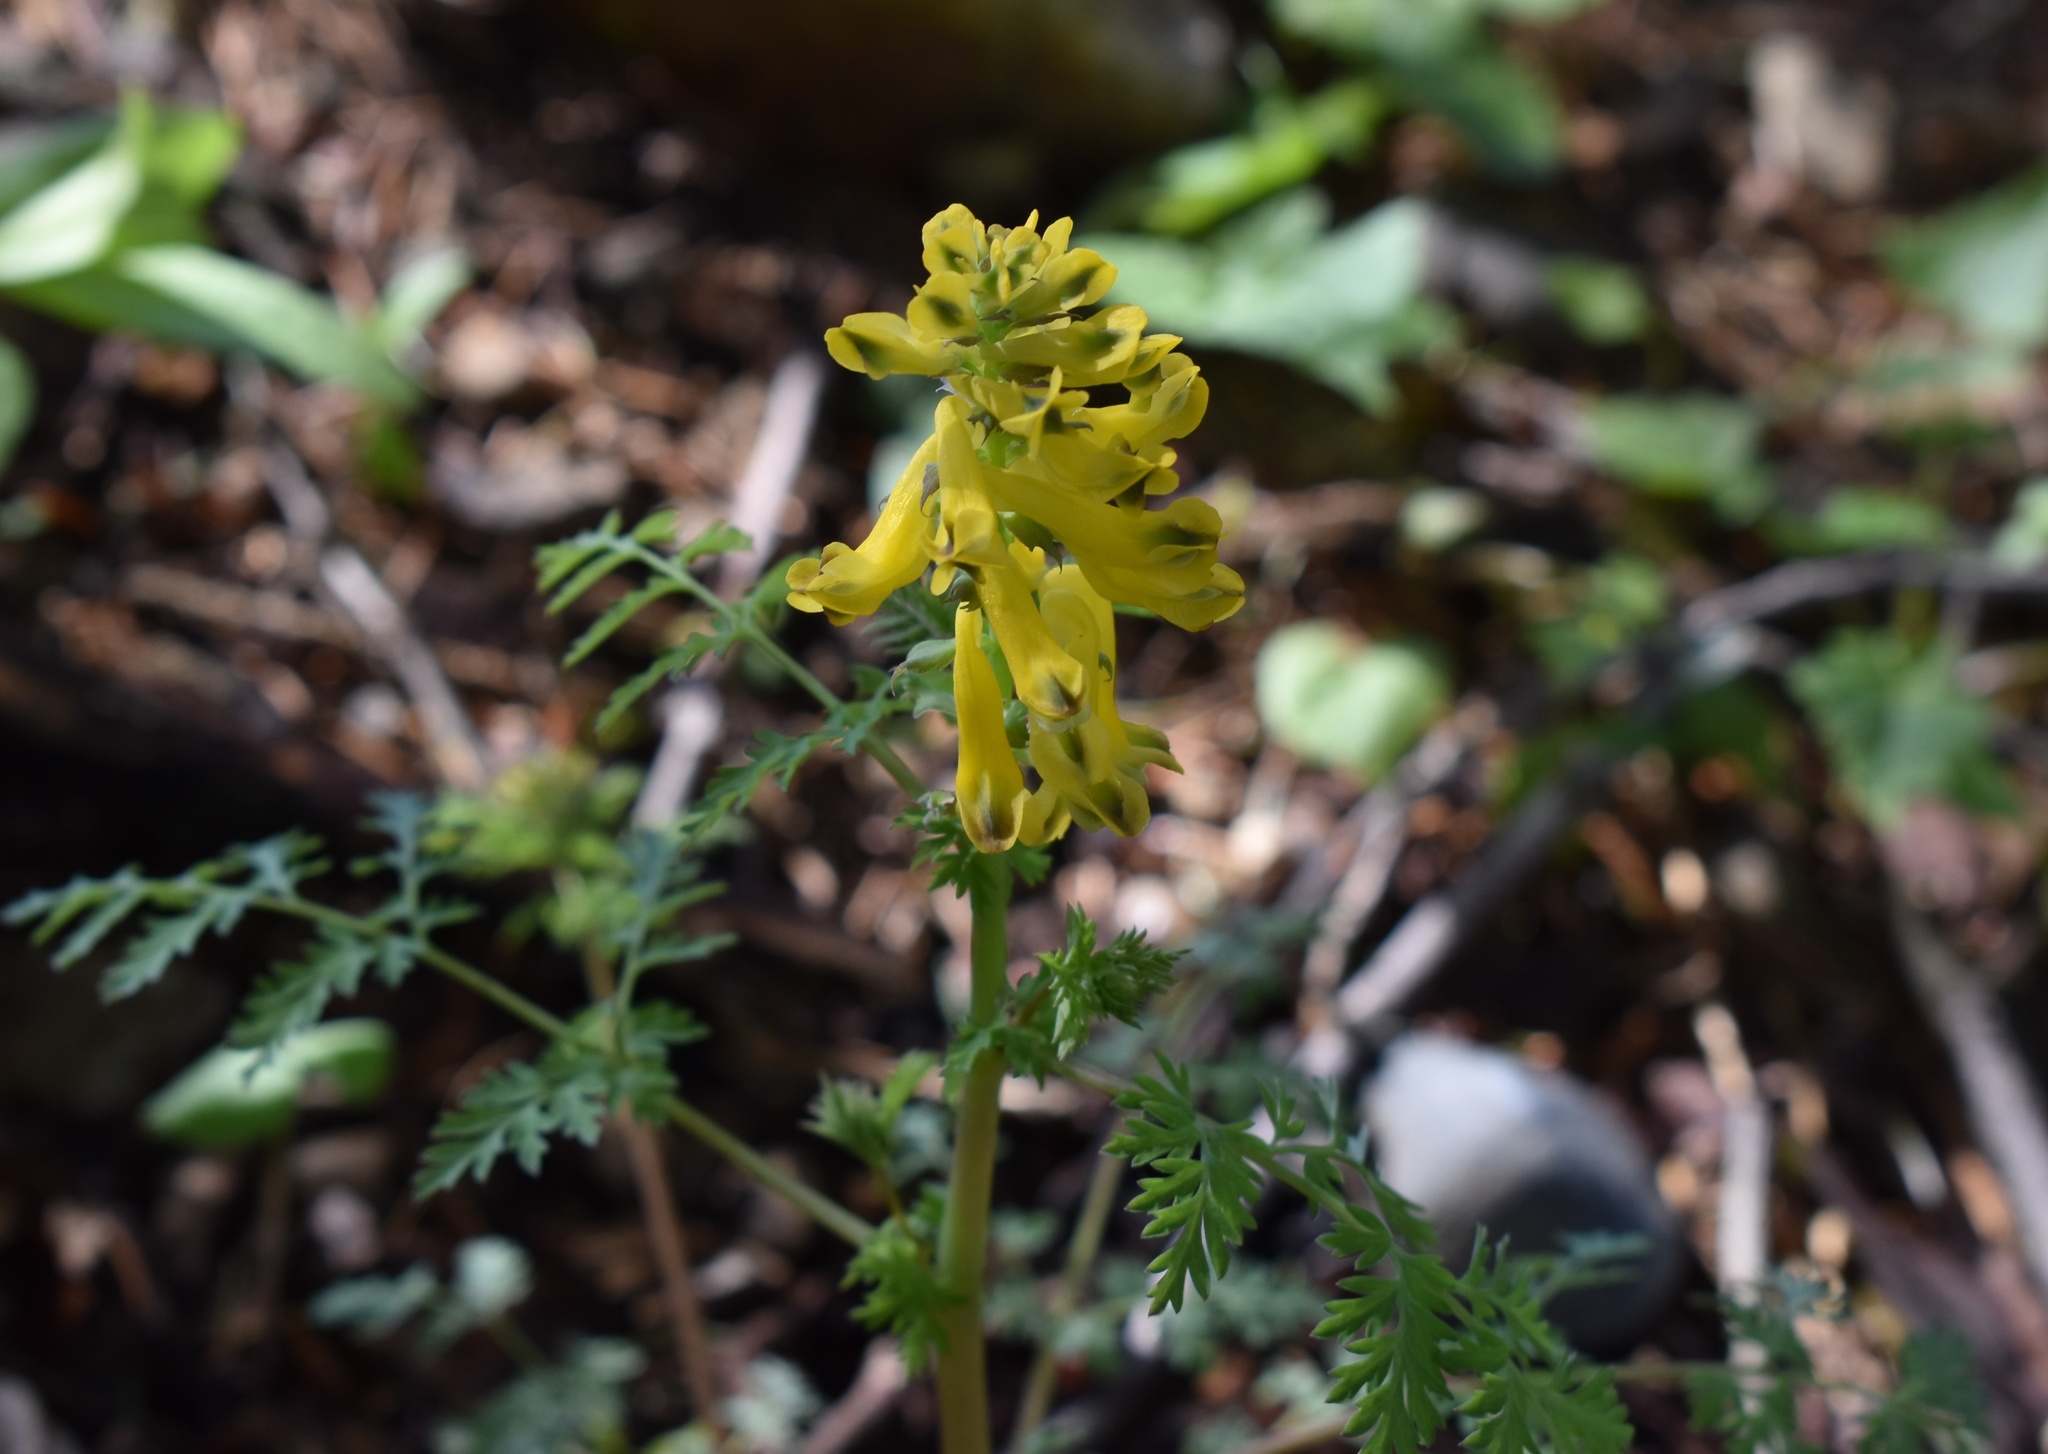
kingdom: Plantae
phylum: Tracheophyta
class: Magnoliopsida
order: Ranunculales
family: Papaveraceae
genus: Corydalis
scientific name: Corydalis speciosa
